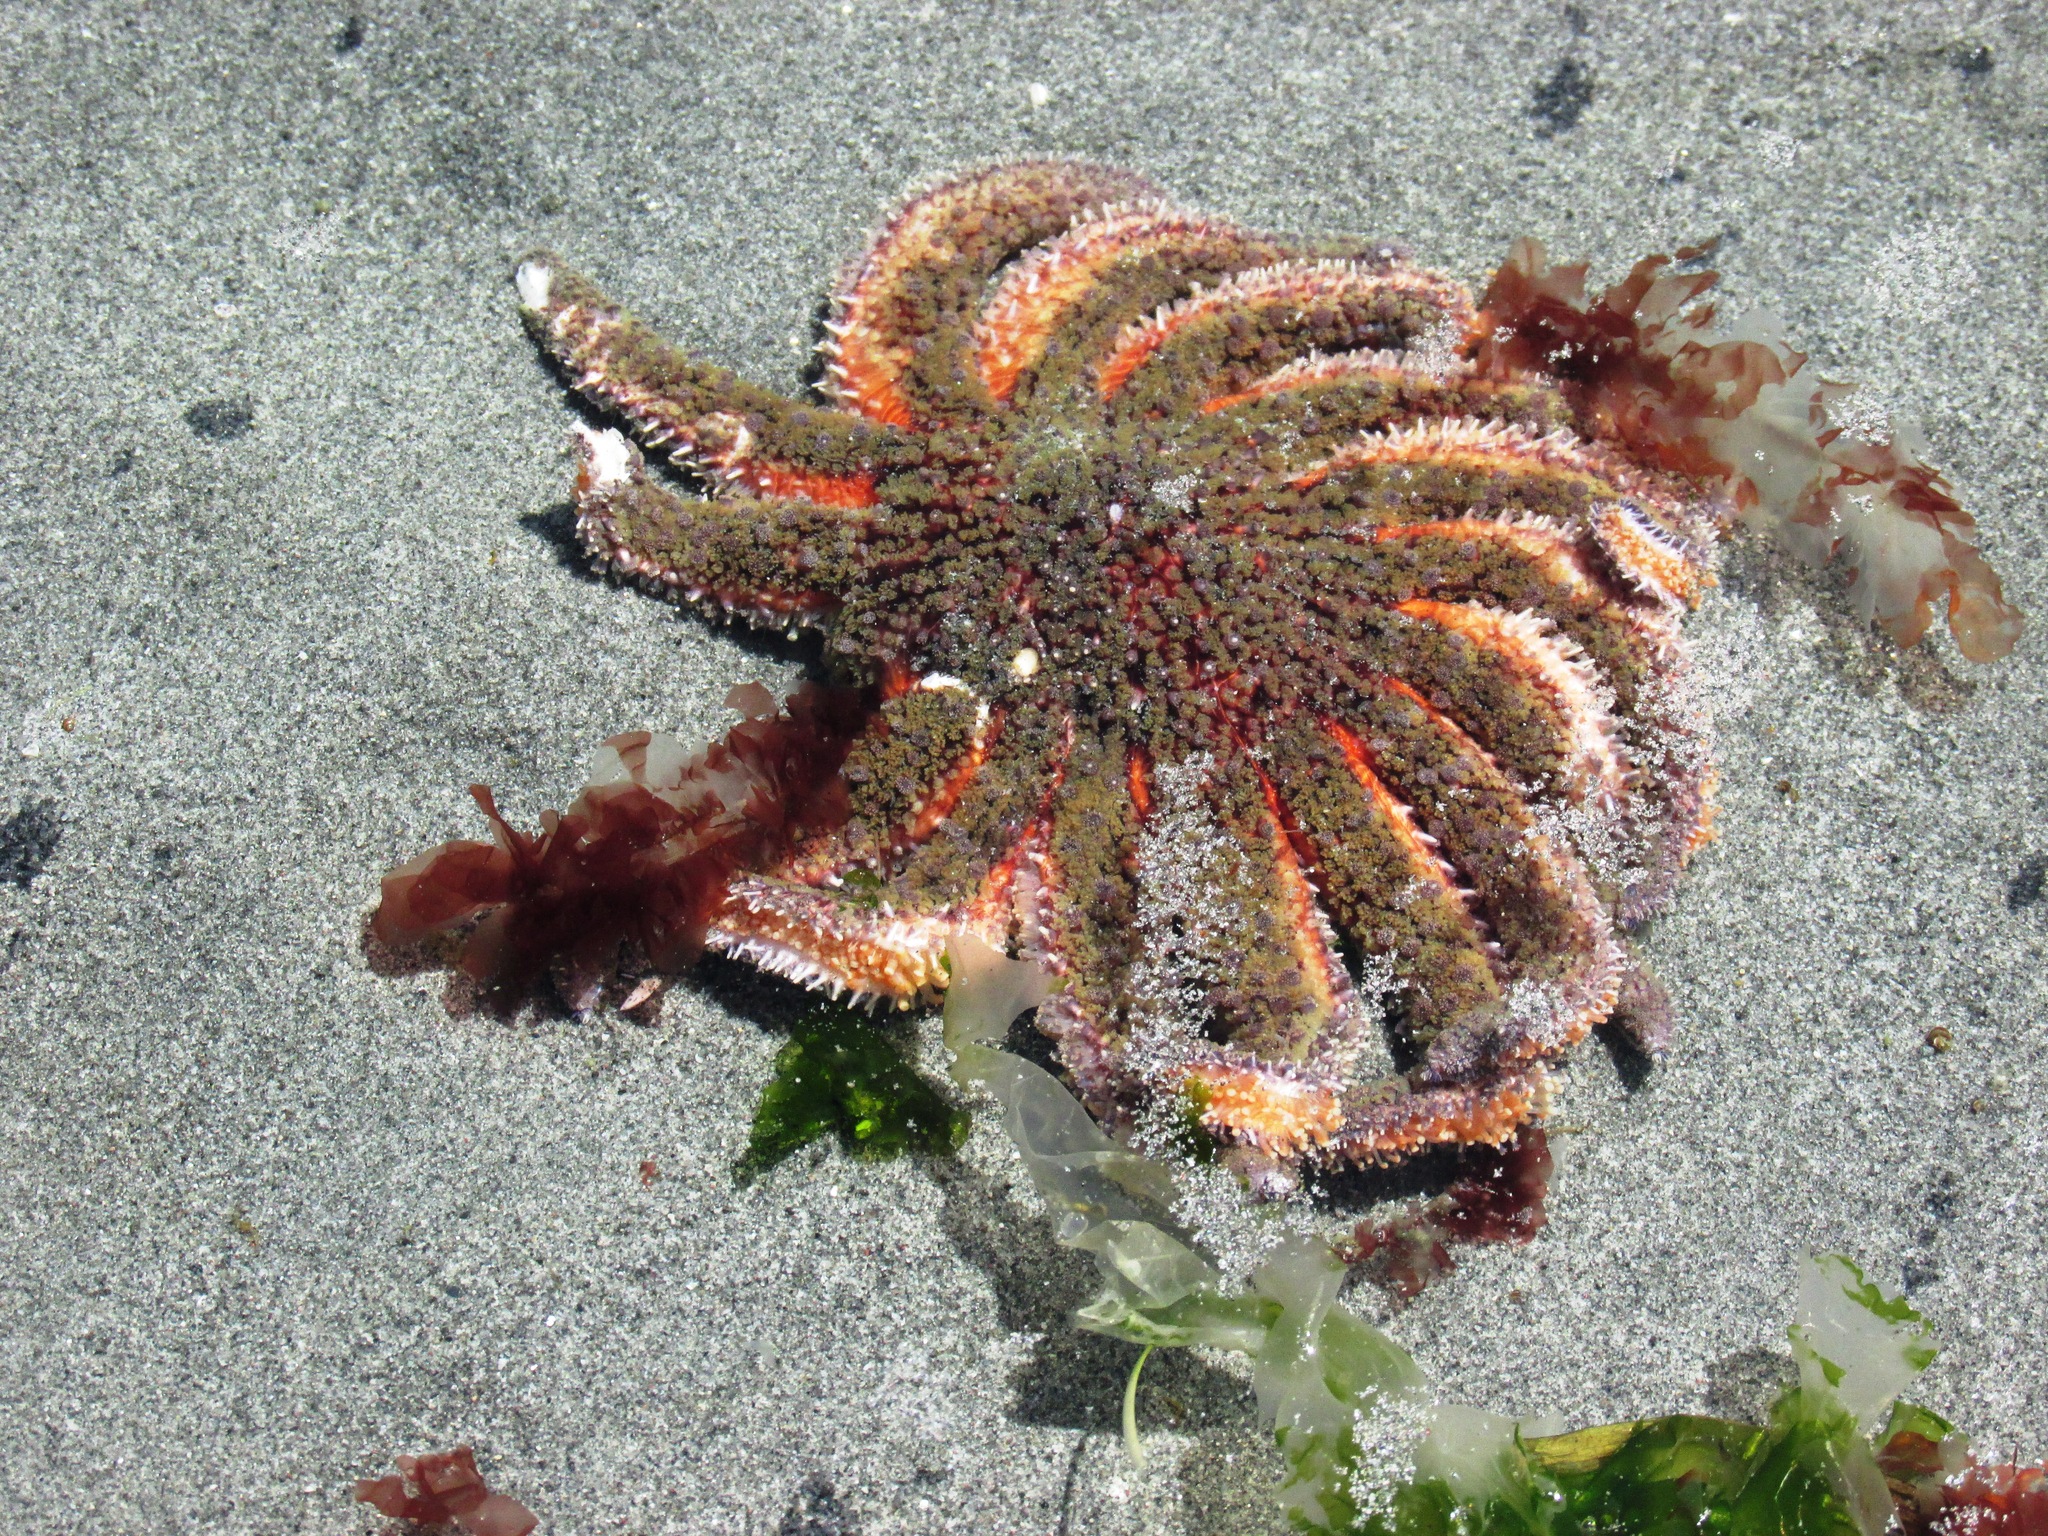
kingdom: Animalia
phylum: Echinodermata
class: Asteroidea
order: Forcipulatida
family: Asteriidae
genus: Pycnopodia
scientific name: Pycnopodia helianthoides
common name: Rag mop
